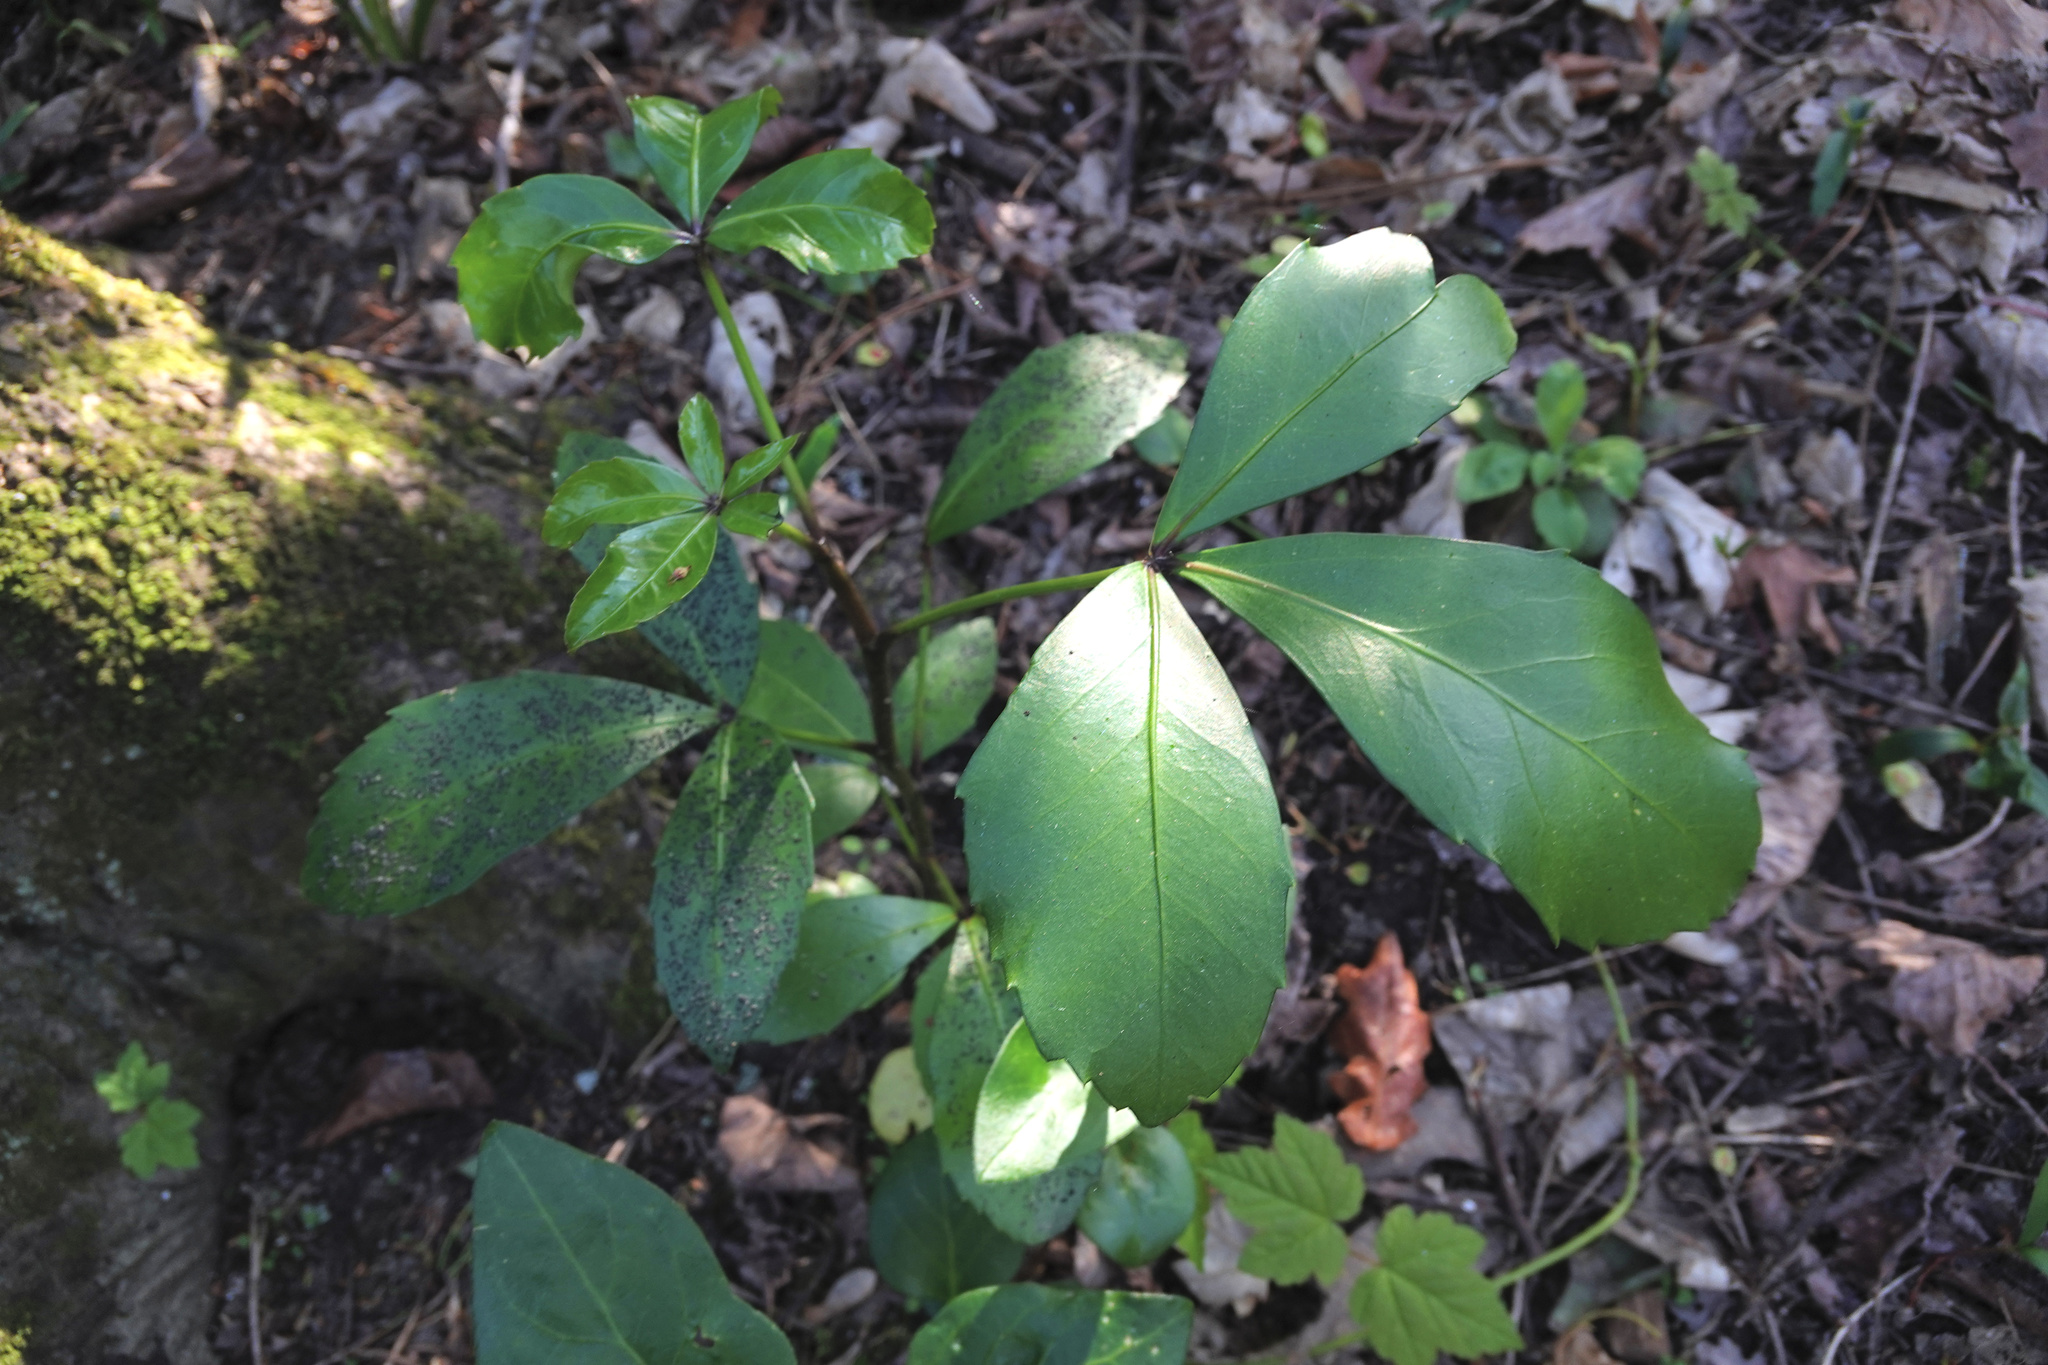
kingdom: Plantae
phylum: Tracheophyta
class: Magnoliopsida
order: Apiales
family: Araliaceae
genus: Pseudopanax
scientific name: Pseudopanax lessonii
